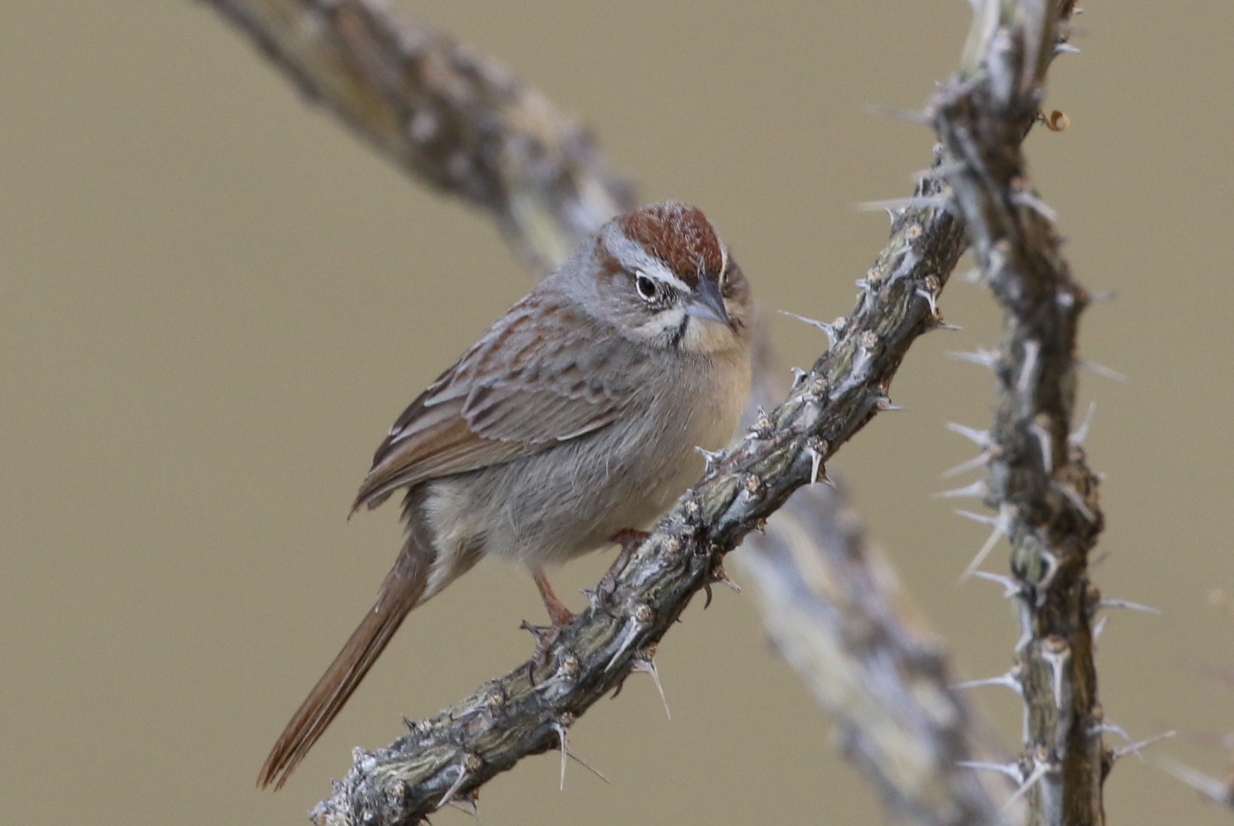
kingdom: Animalia
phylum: Chordata
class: Aves
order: Passeriformes
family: Passerellidae
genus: Aimophila
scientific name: Aimophila ruficeps
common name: Rufous-crowned sparrow
